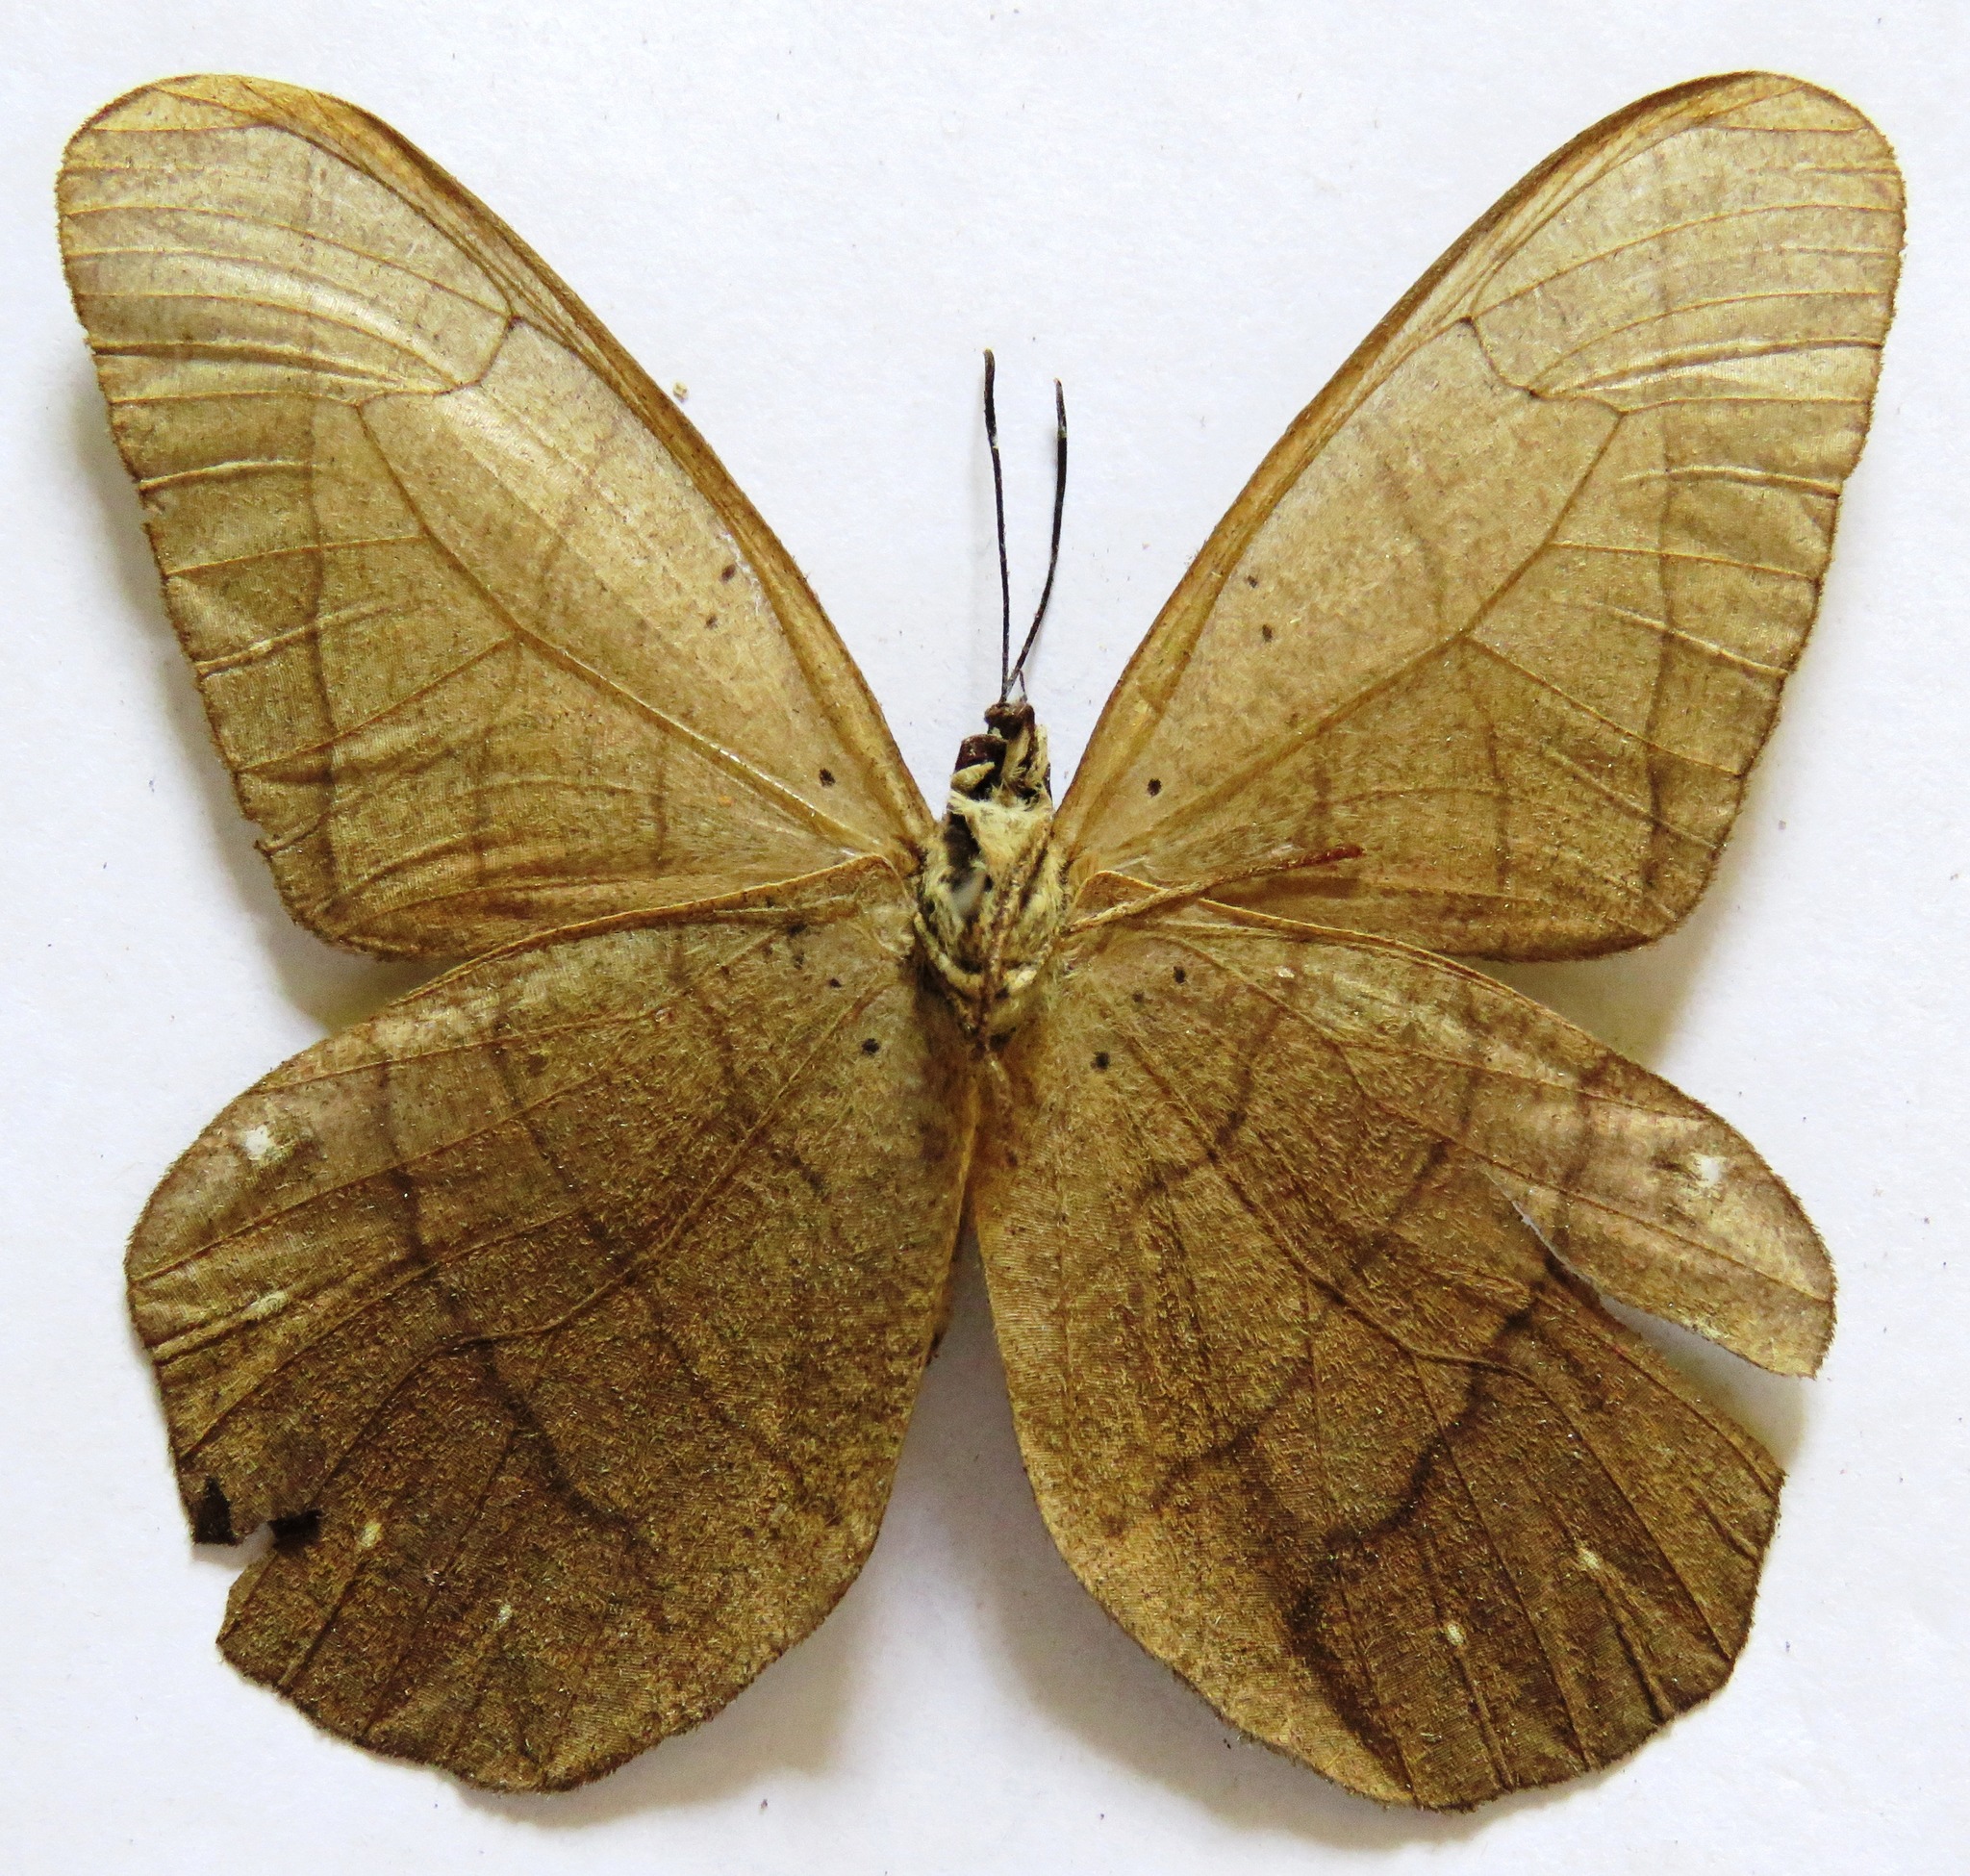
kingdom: Animalia
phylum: Arthropoda
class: Insecta
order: Lepidoptera
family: Nymphalidae
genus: Pierella
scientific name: Pierella luna
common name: Moon satyr
